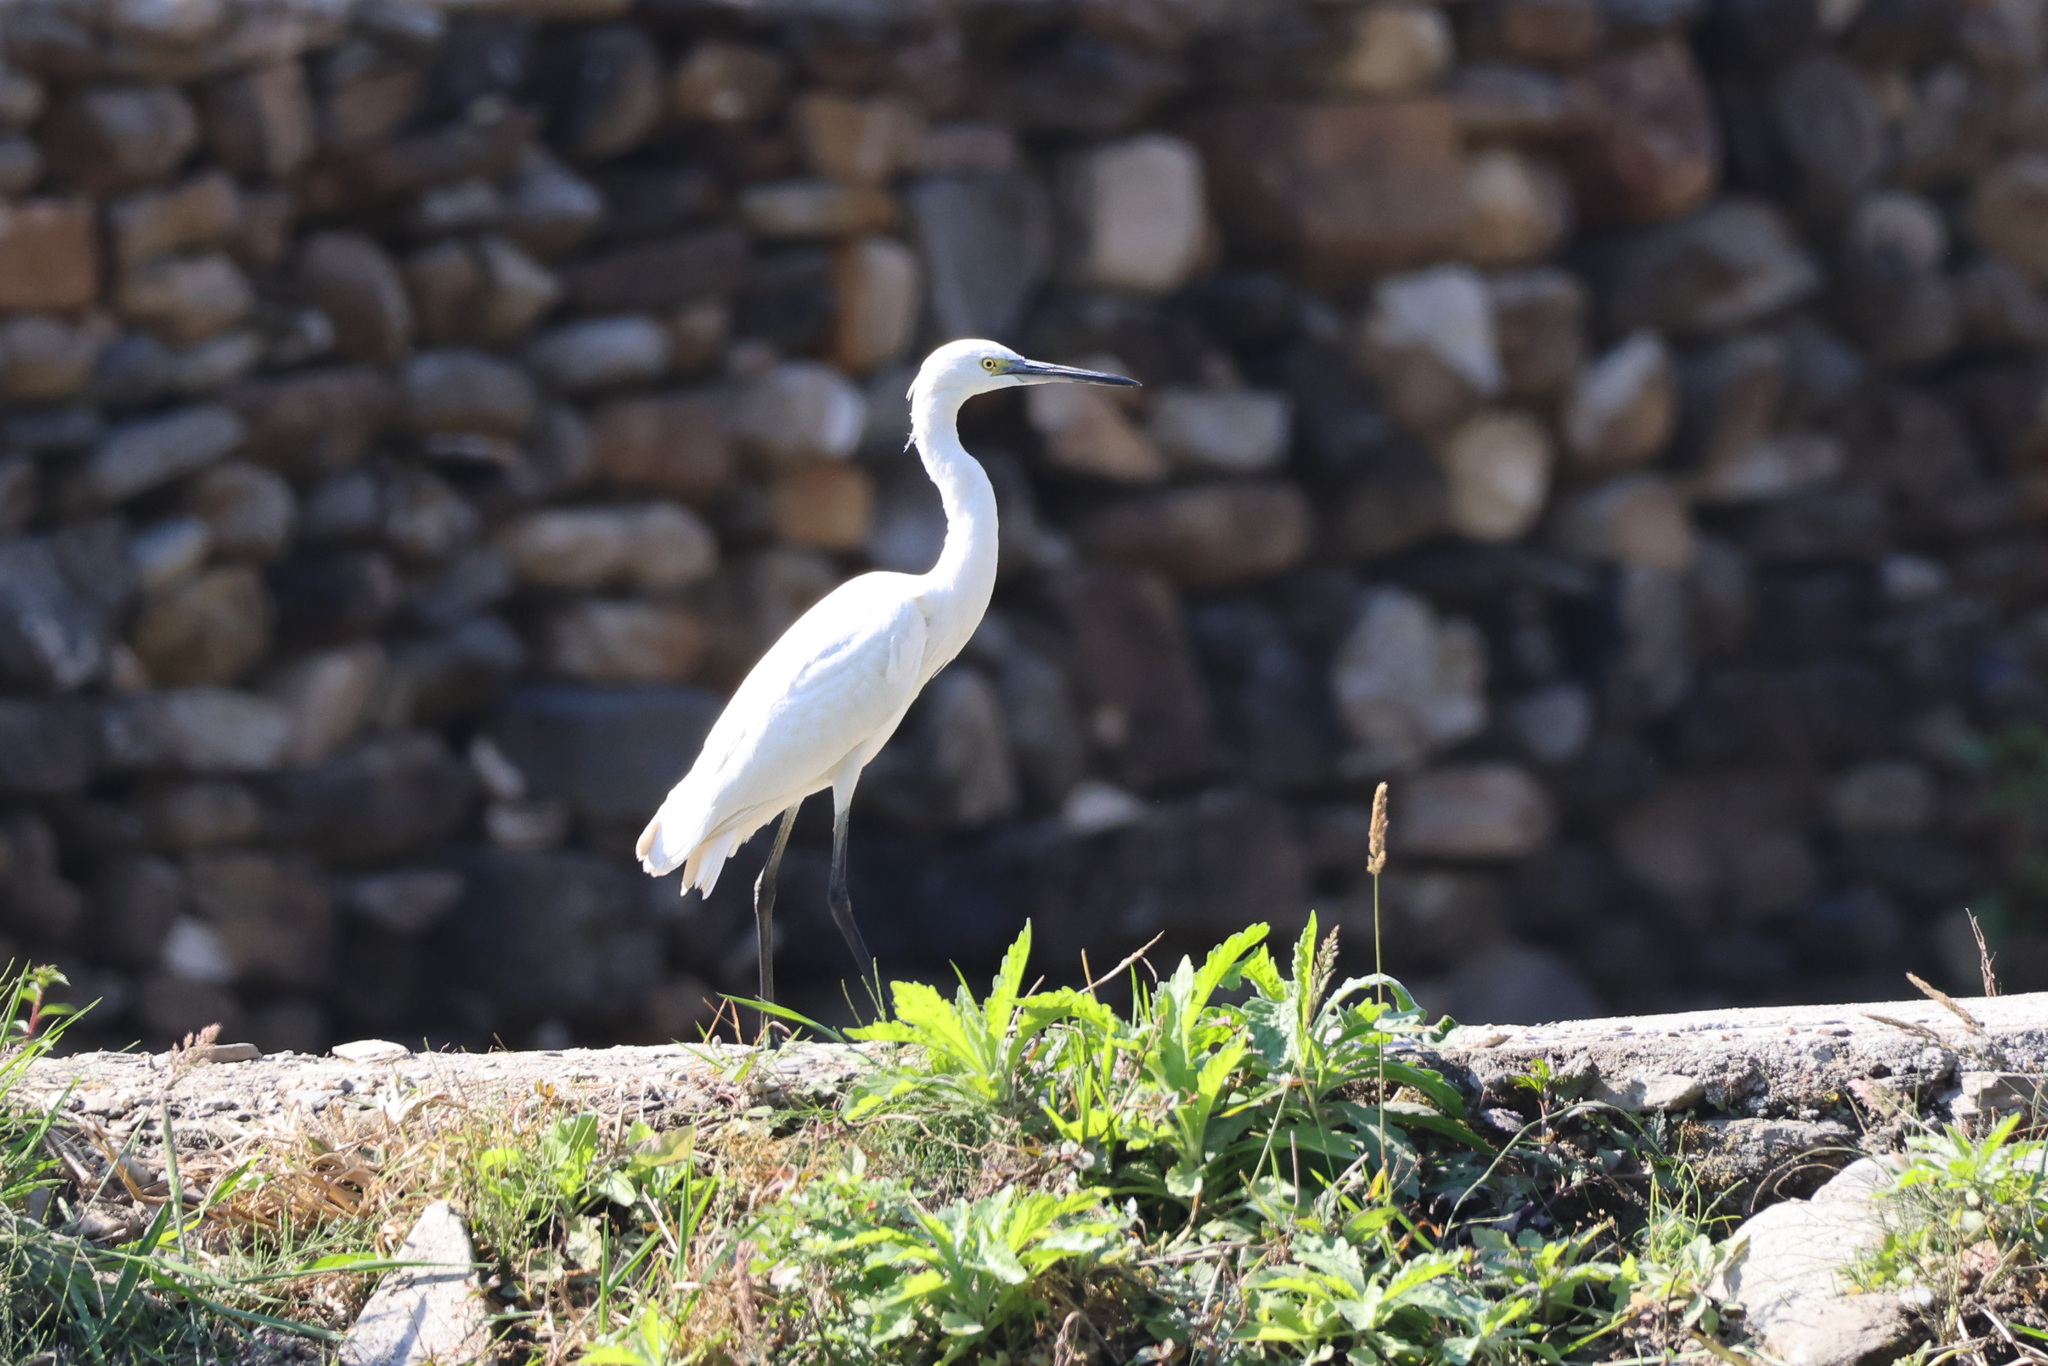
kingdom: Animalia
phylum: Chordata
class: Aves
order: Pelecaniformes
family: Ardeidae
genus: Egretta
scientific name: Egretta garzetta
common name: Little egret
